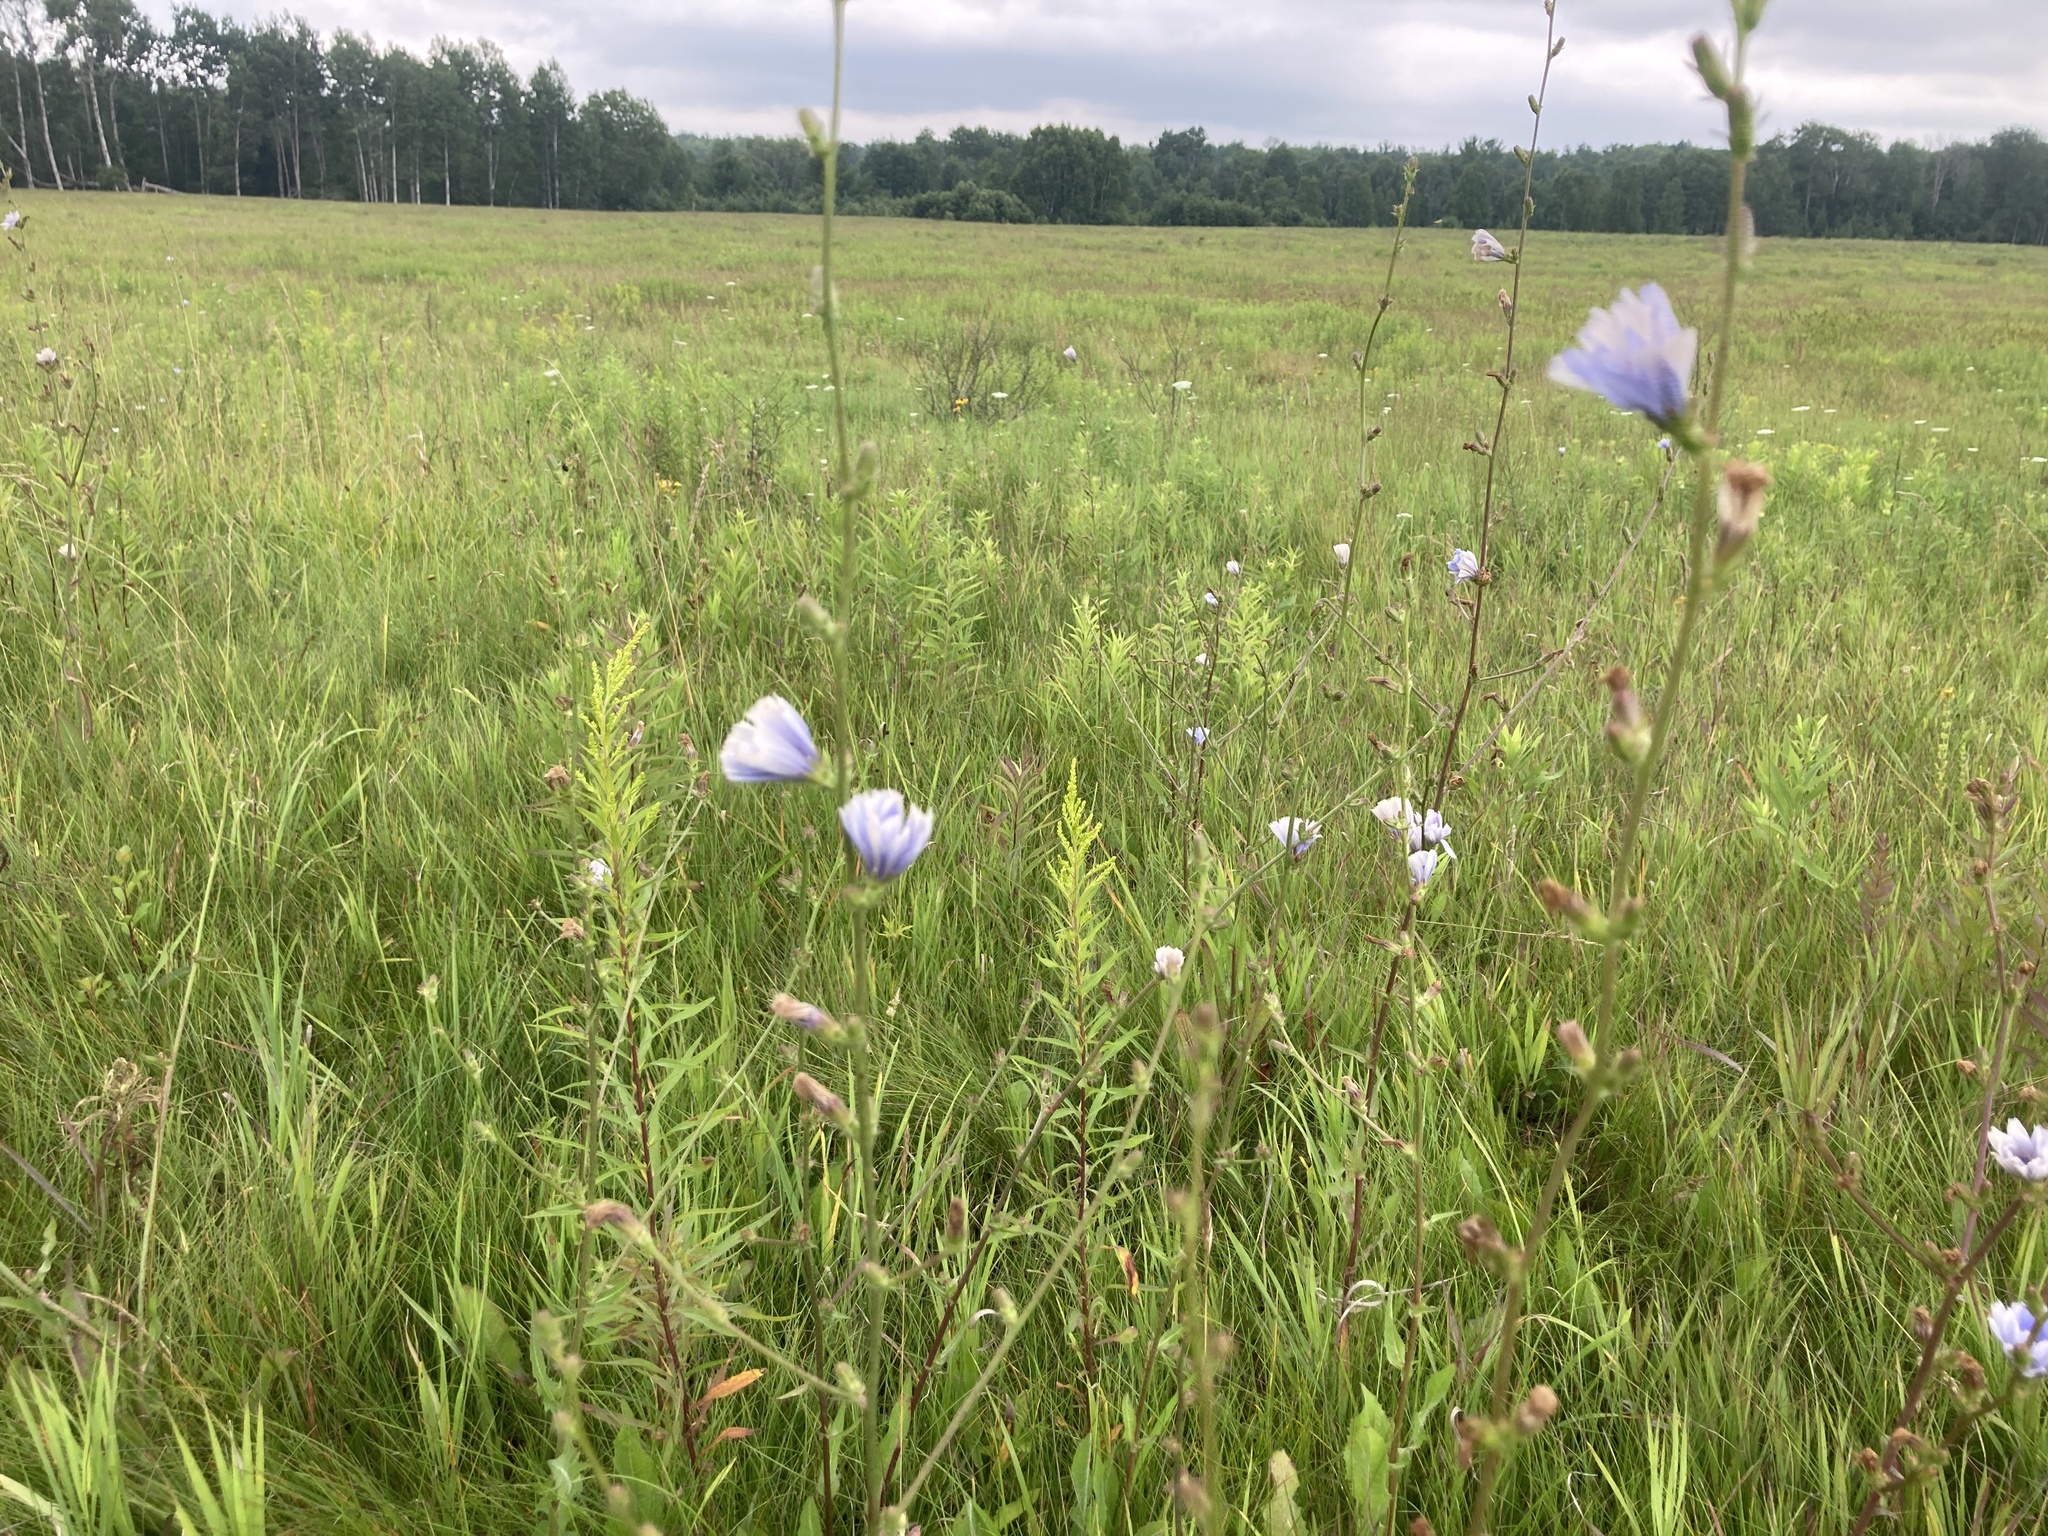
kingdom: Plantae
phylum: Tracheophyta
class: Magnoliopsida
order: Asterales
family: Asteraceae
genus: Cichorium
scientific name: Cichorium intybus
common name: Chicory
